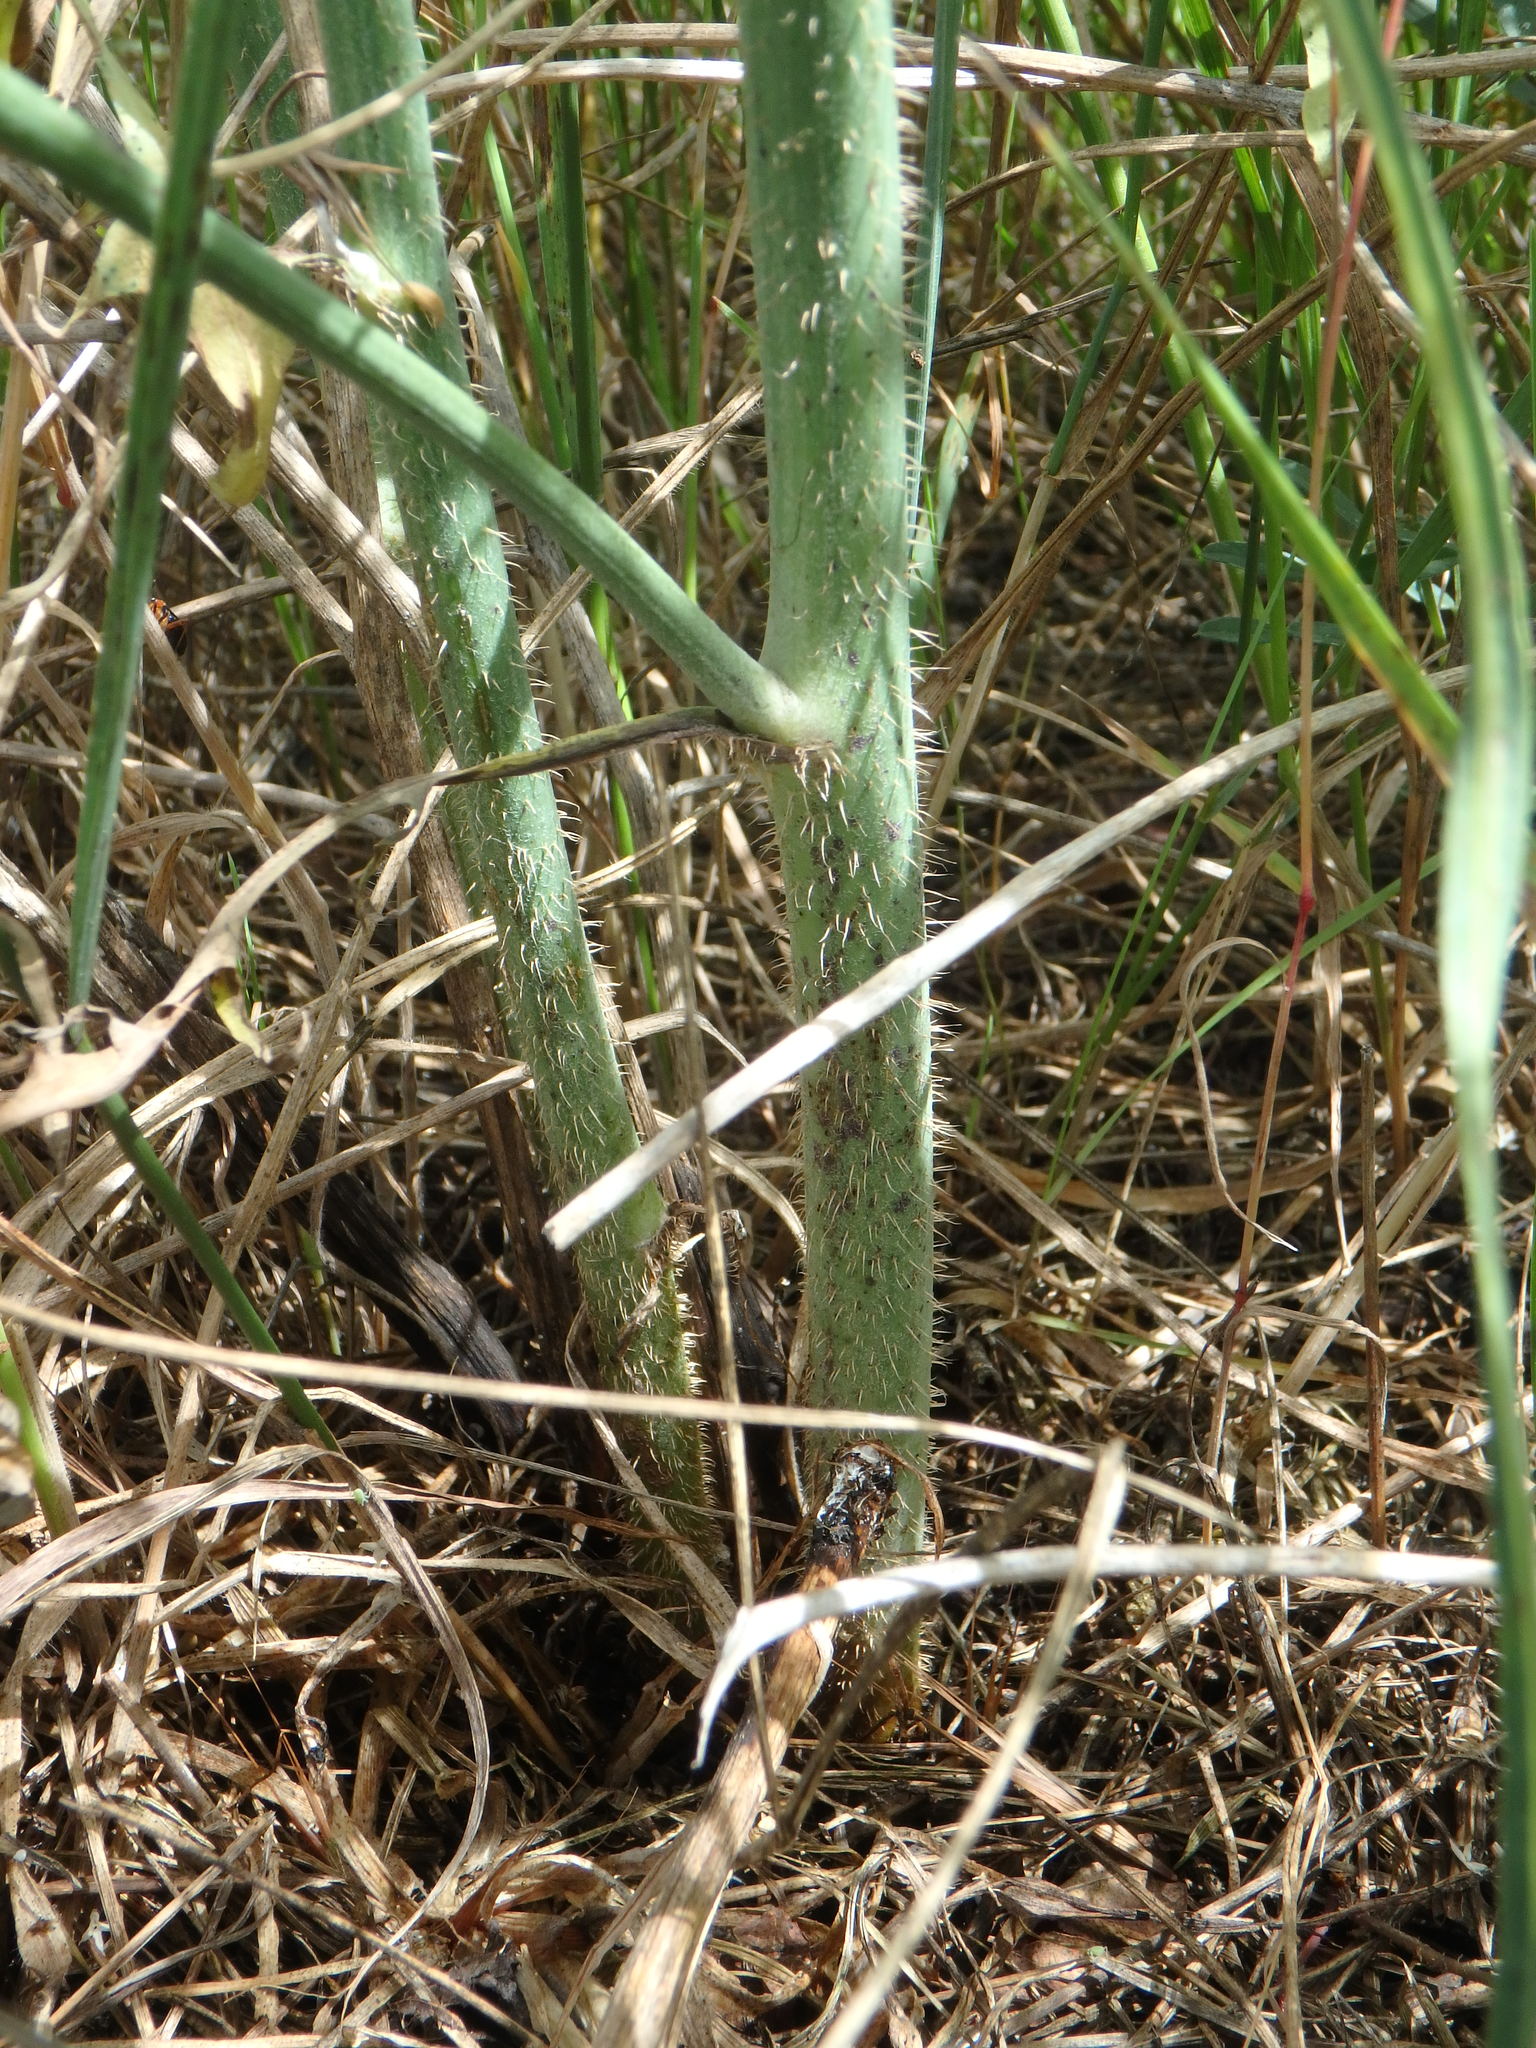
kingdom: Plantae
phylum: Tracheophyta
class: Magnoliopsida
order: Asterales
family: Asteraceae
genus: Chondrilla
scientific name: Chondrilla juncea
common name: Skeleton weed
